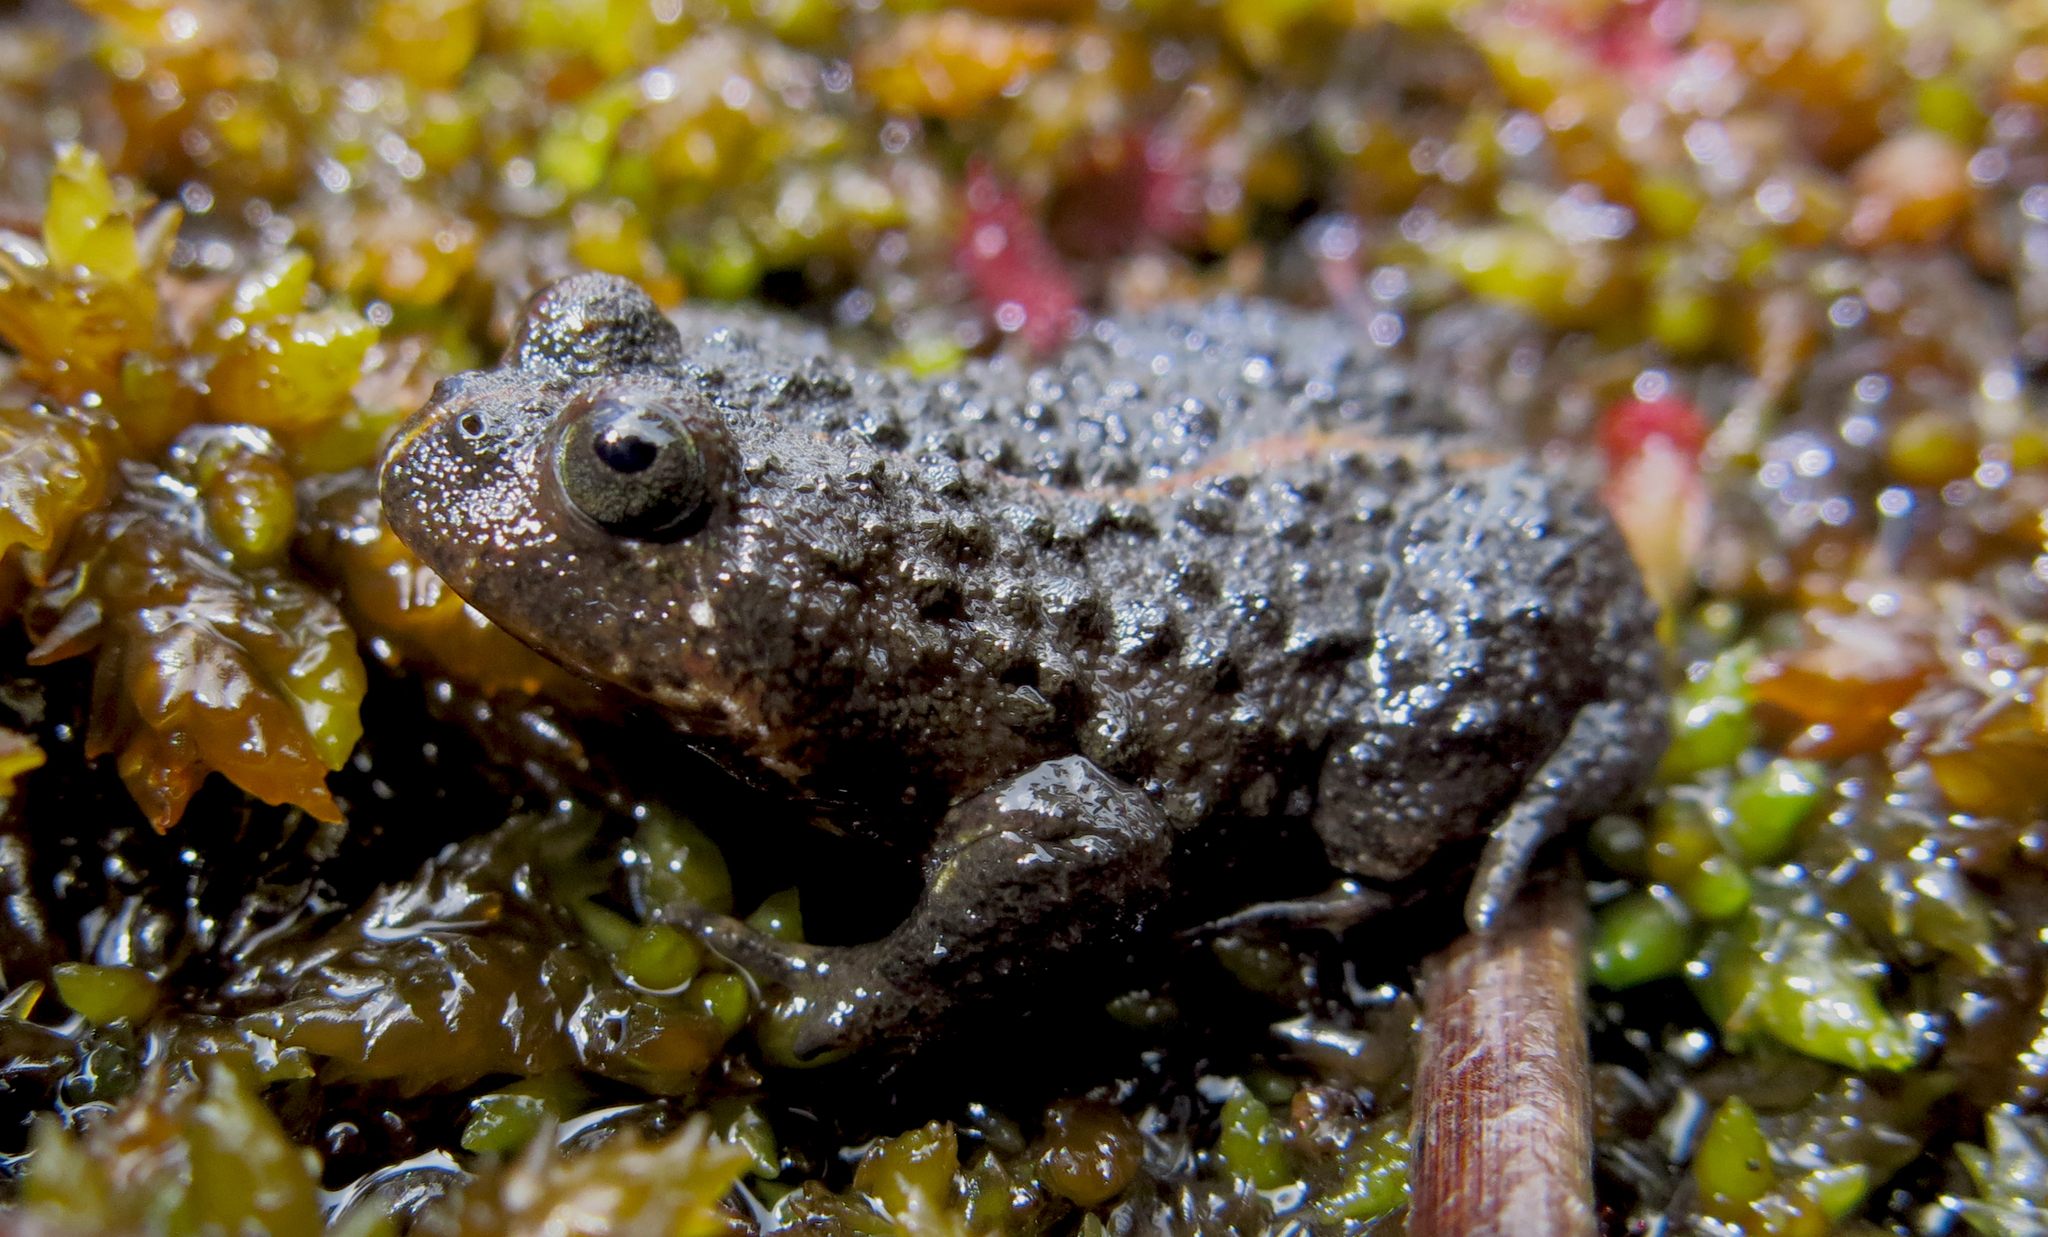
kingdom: Animalia
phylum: Chordata
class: Amphibia
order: Anura
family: Pyxicephalidae
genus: Poyntonia
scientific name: Poyntonia paludicola
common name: Montane marsh frog
